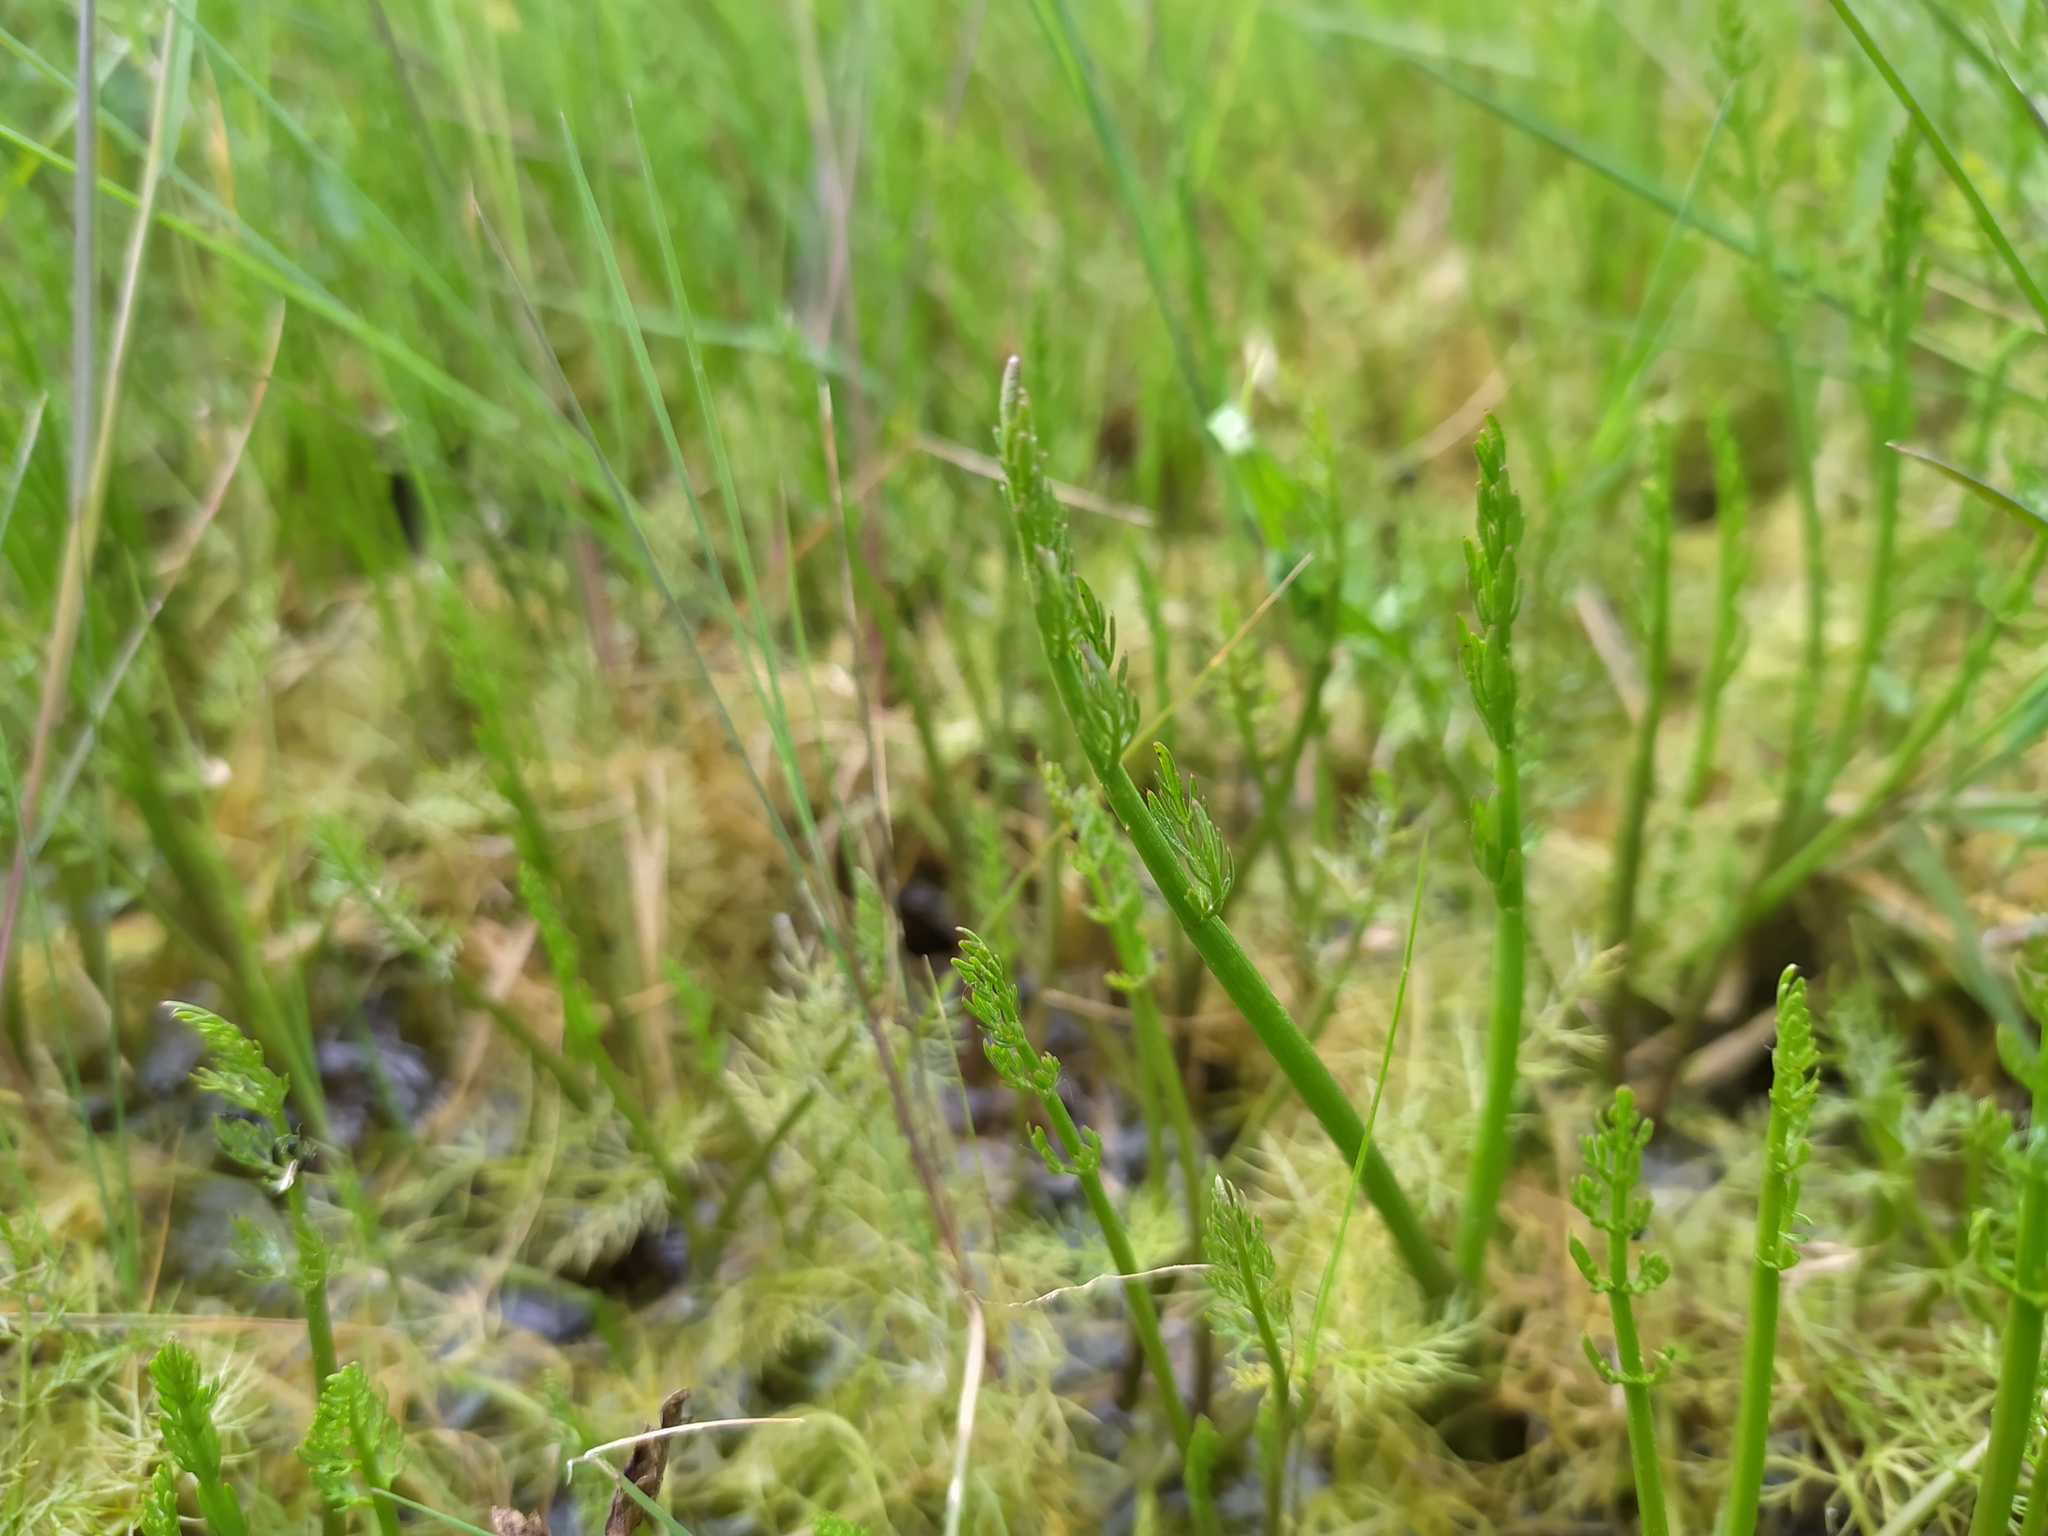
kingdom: Plantae
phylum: Tracheophyta
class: Magnoliopsida
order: Apiales
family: Apiaceae
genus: Oenanthe
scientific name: Oenanthe fistulosa
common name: Tubular water-dropwort
